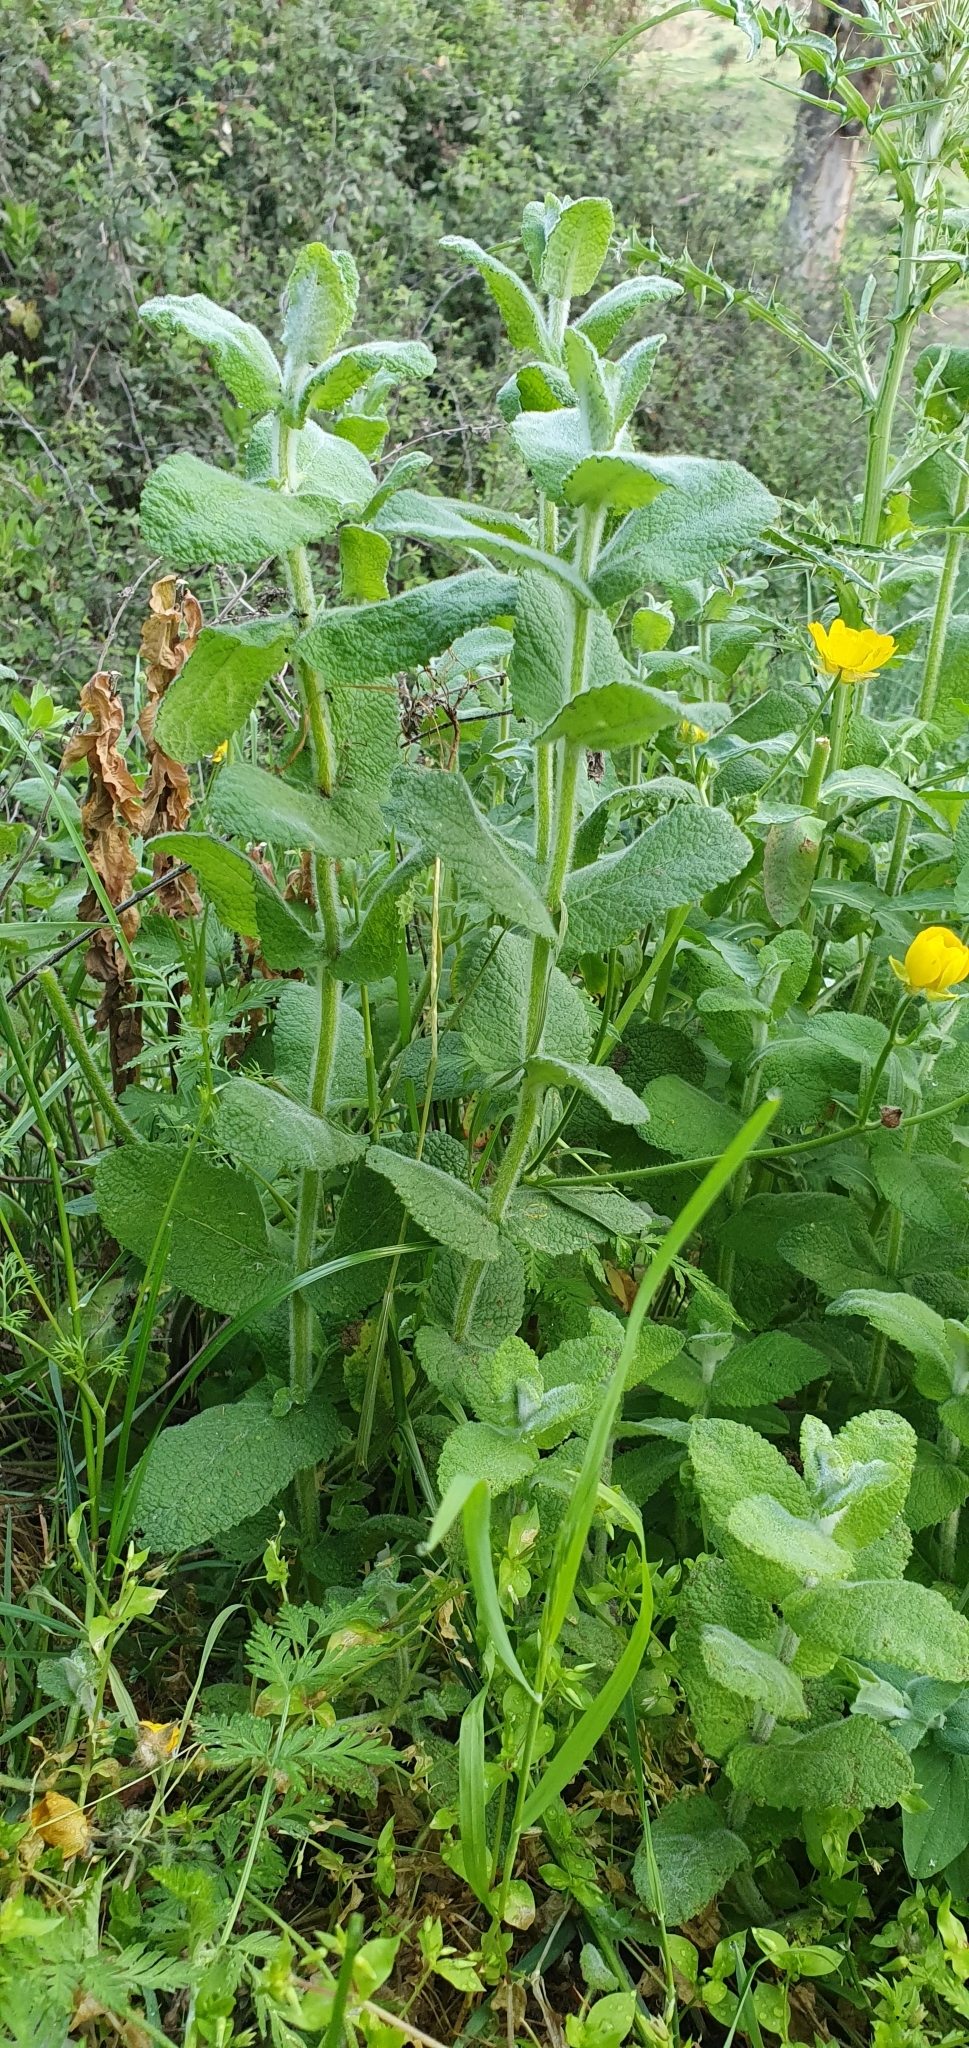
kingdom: Plantae
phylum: Tracheophyta
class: Magnoliopsida
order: Lamiales
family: Lamiaceae
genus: Mentha
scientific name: Mentha suaveolens
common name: Apple mint
